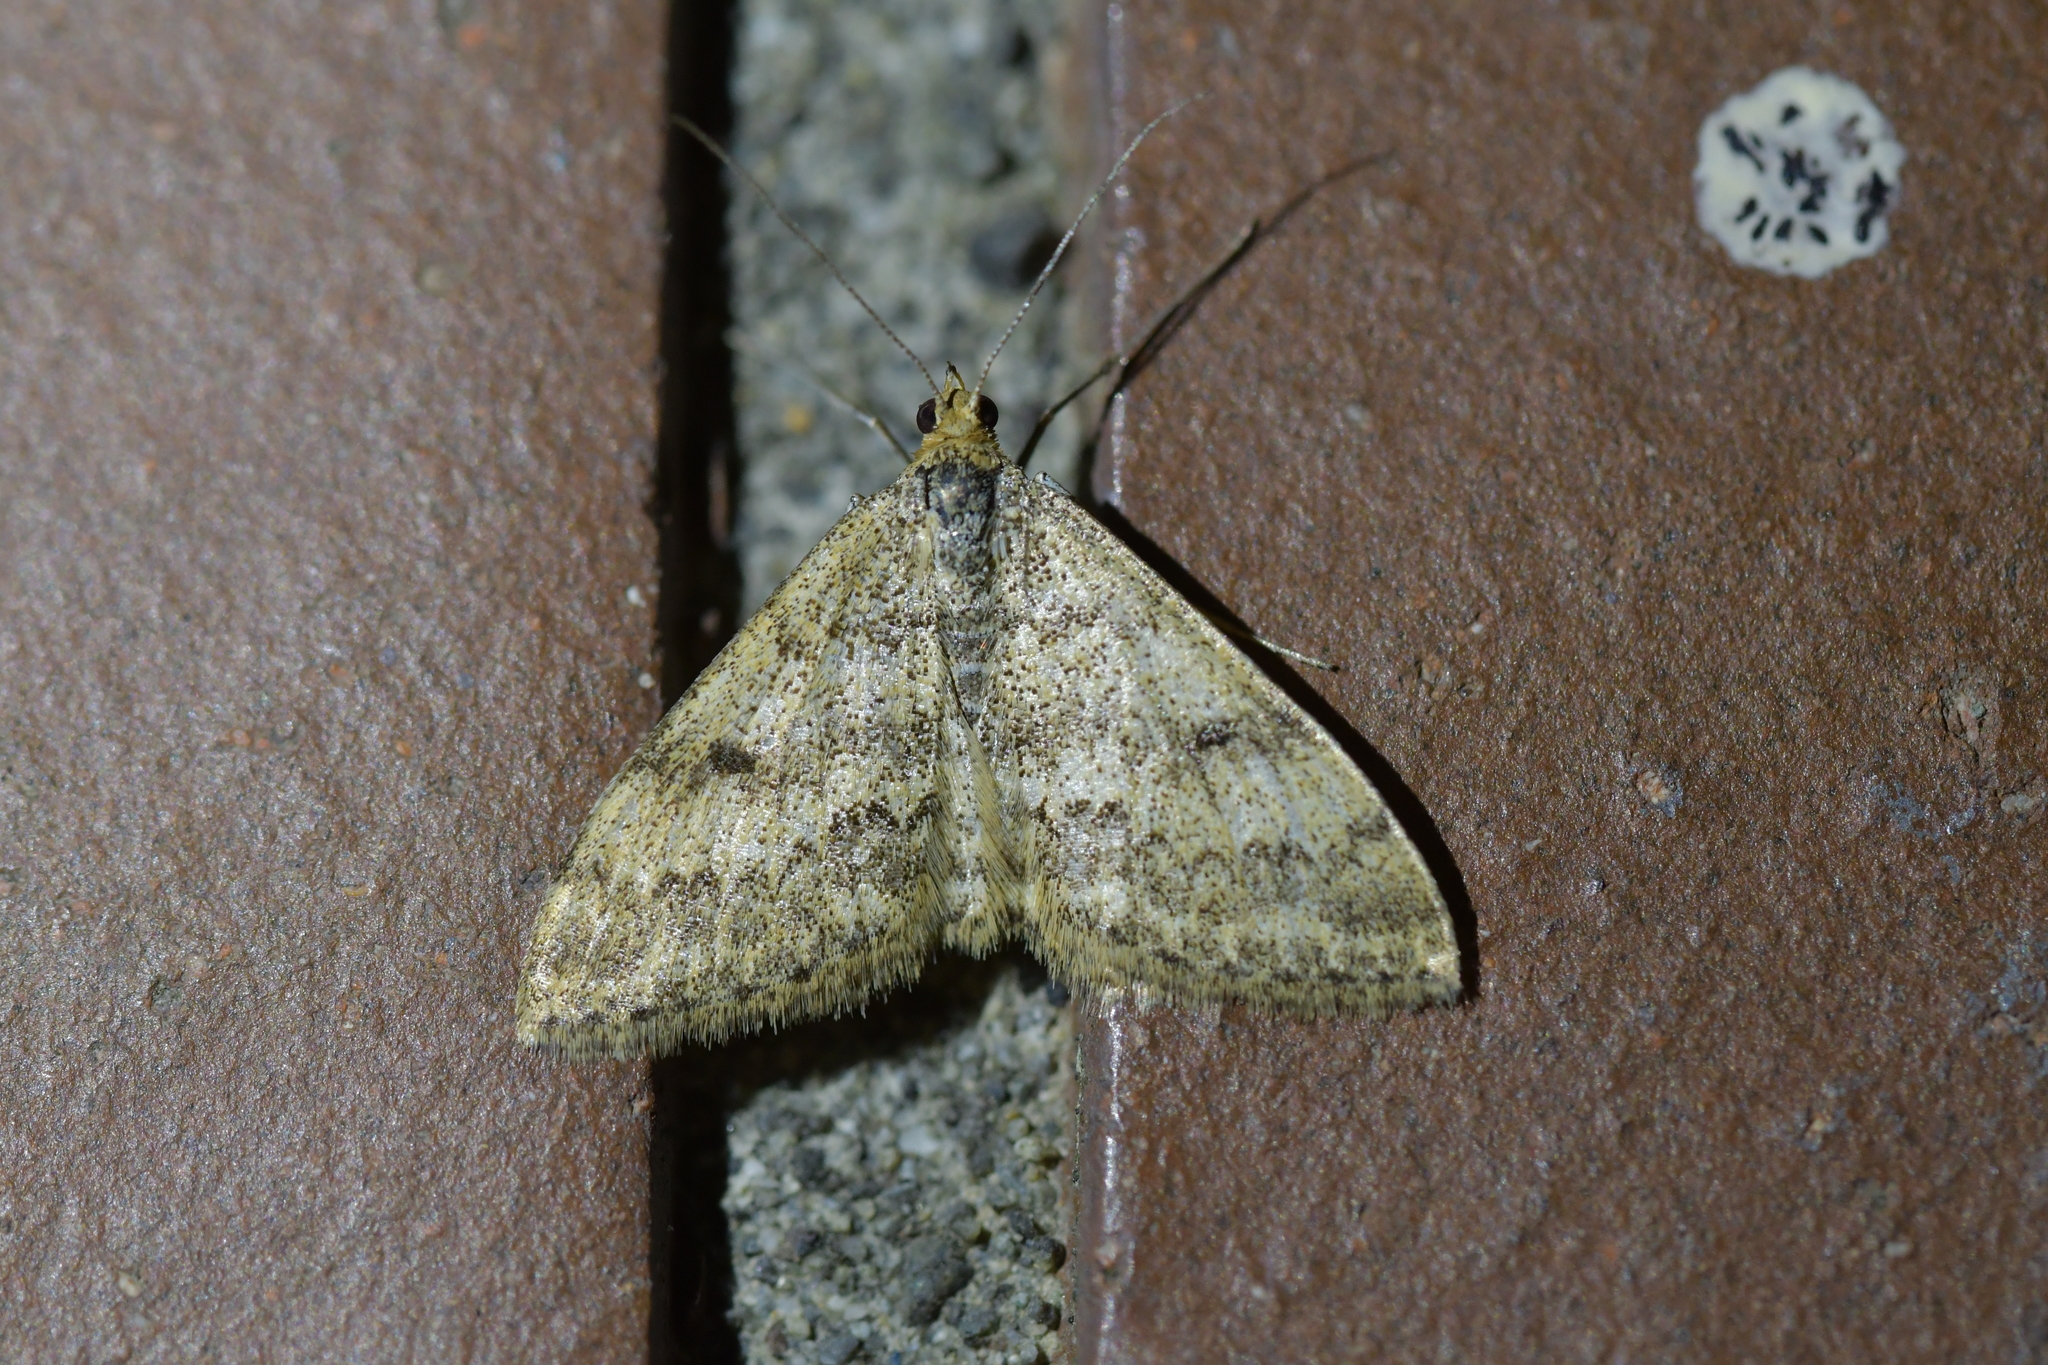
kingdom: Animalia
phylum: Arthropoda
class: Insecta
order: Lepidoptera
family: Geometridae
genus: Scopula
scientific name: Scopula rubraria
